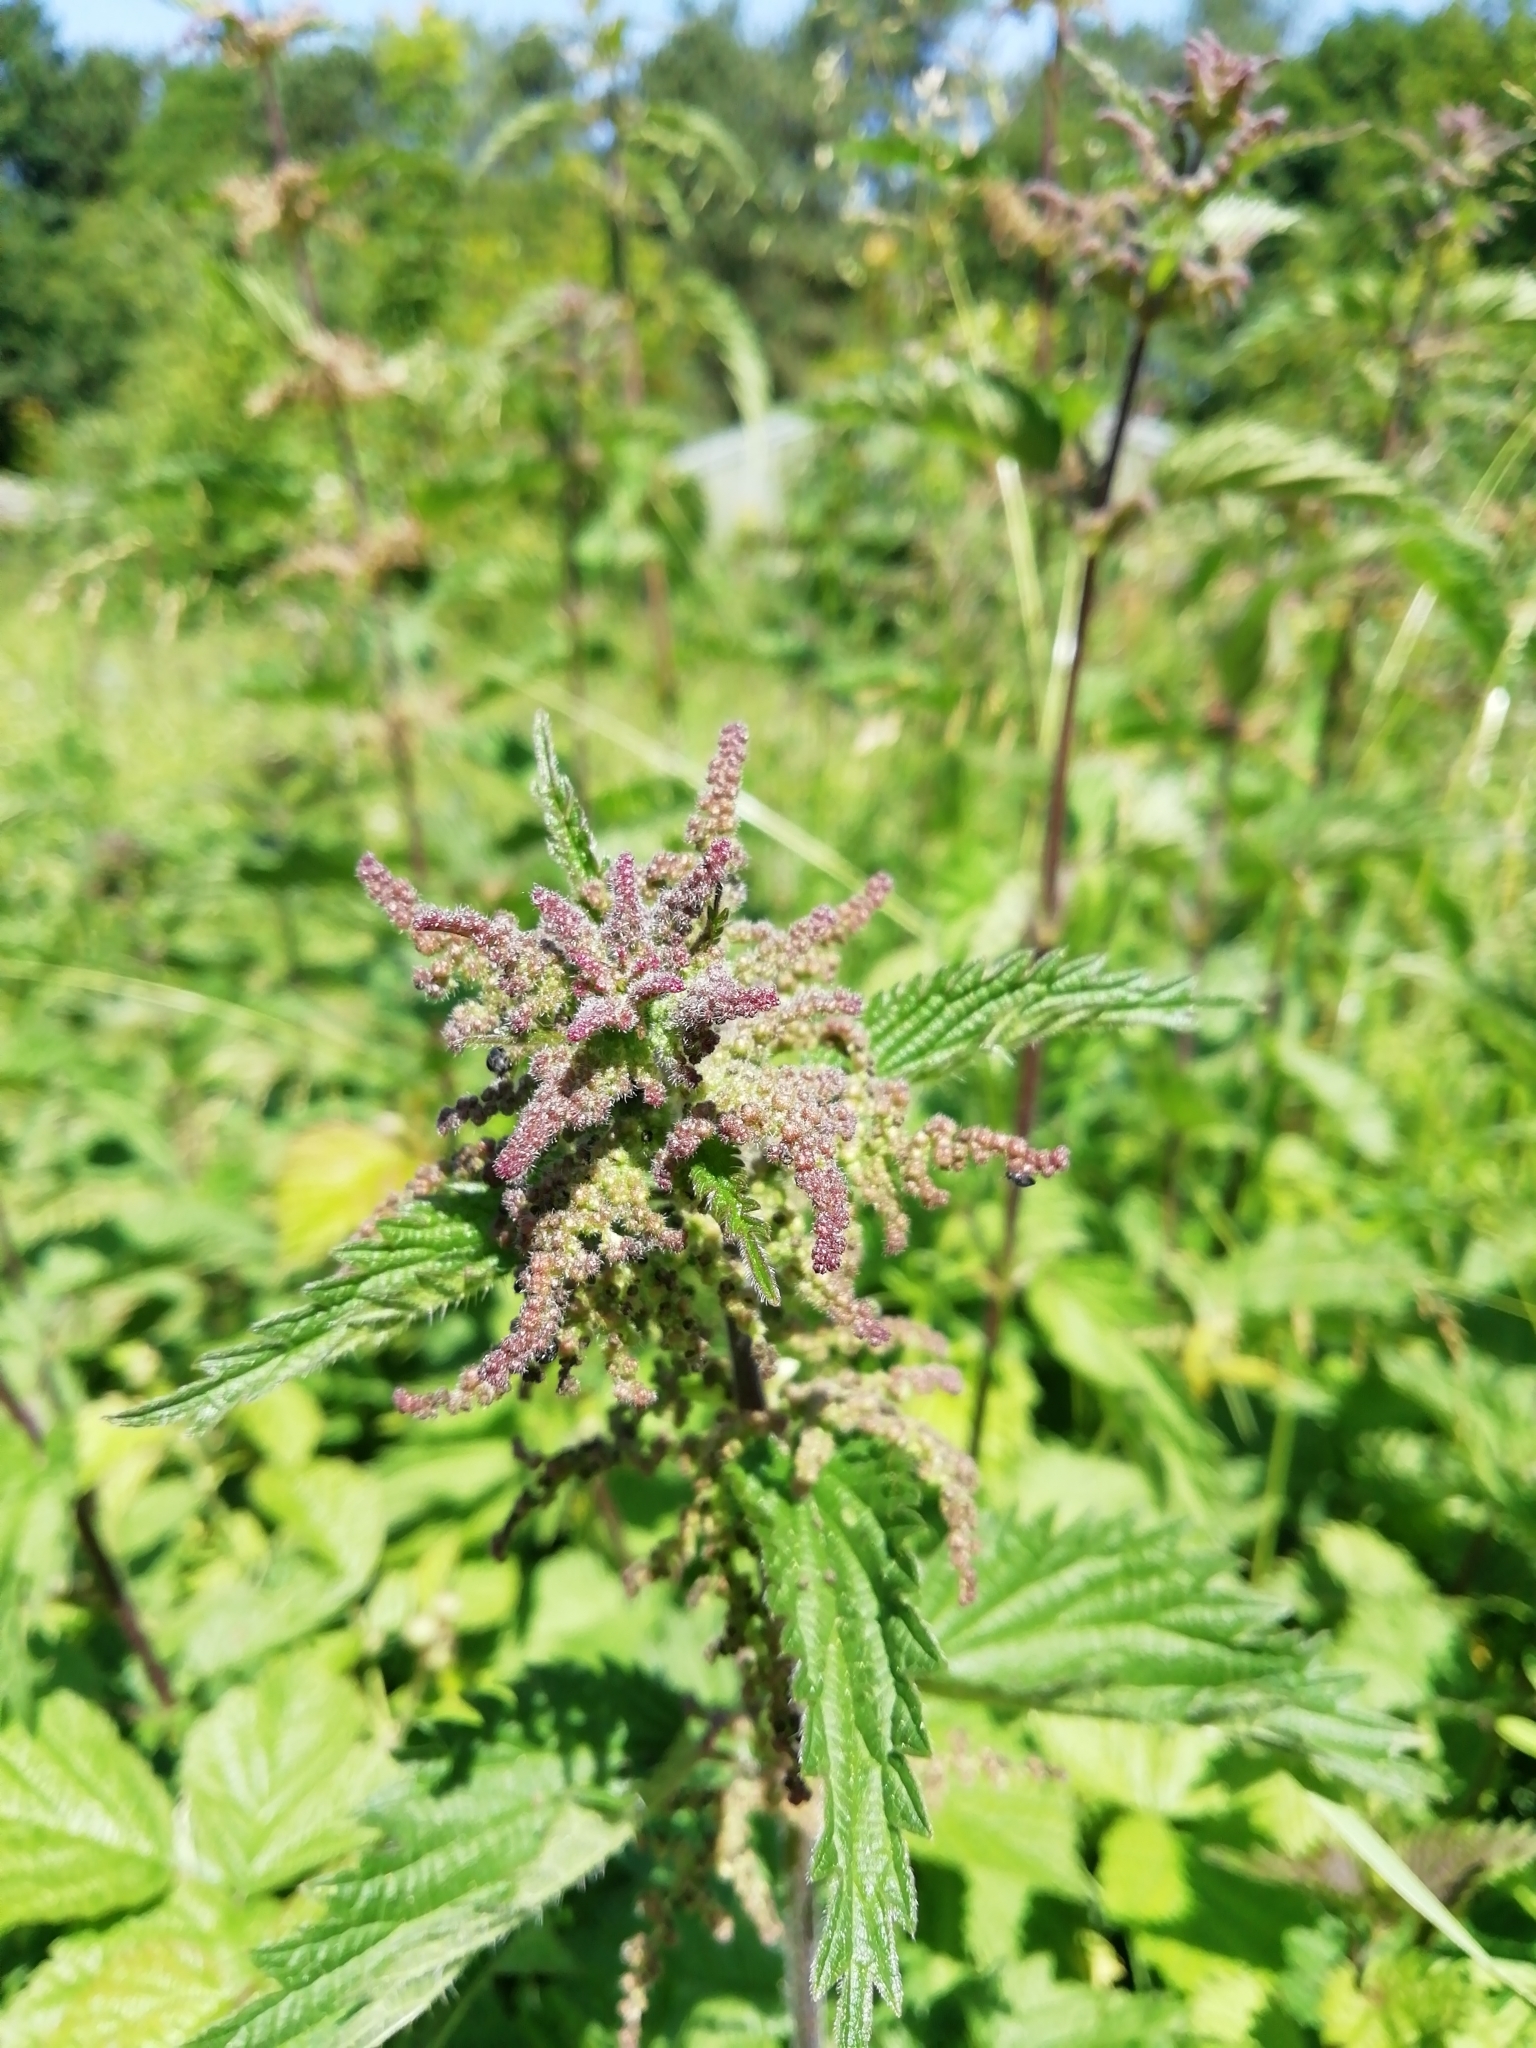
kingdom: Plantae
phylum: Tracheophyta
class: Magnoliopsida
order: Rosales
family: Urticaceae
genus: Urtica
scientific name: Urtica dioica
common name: Common nettle
